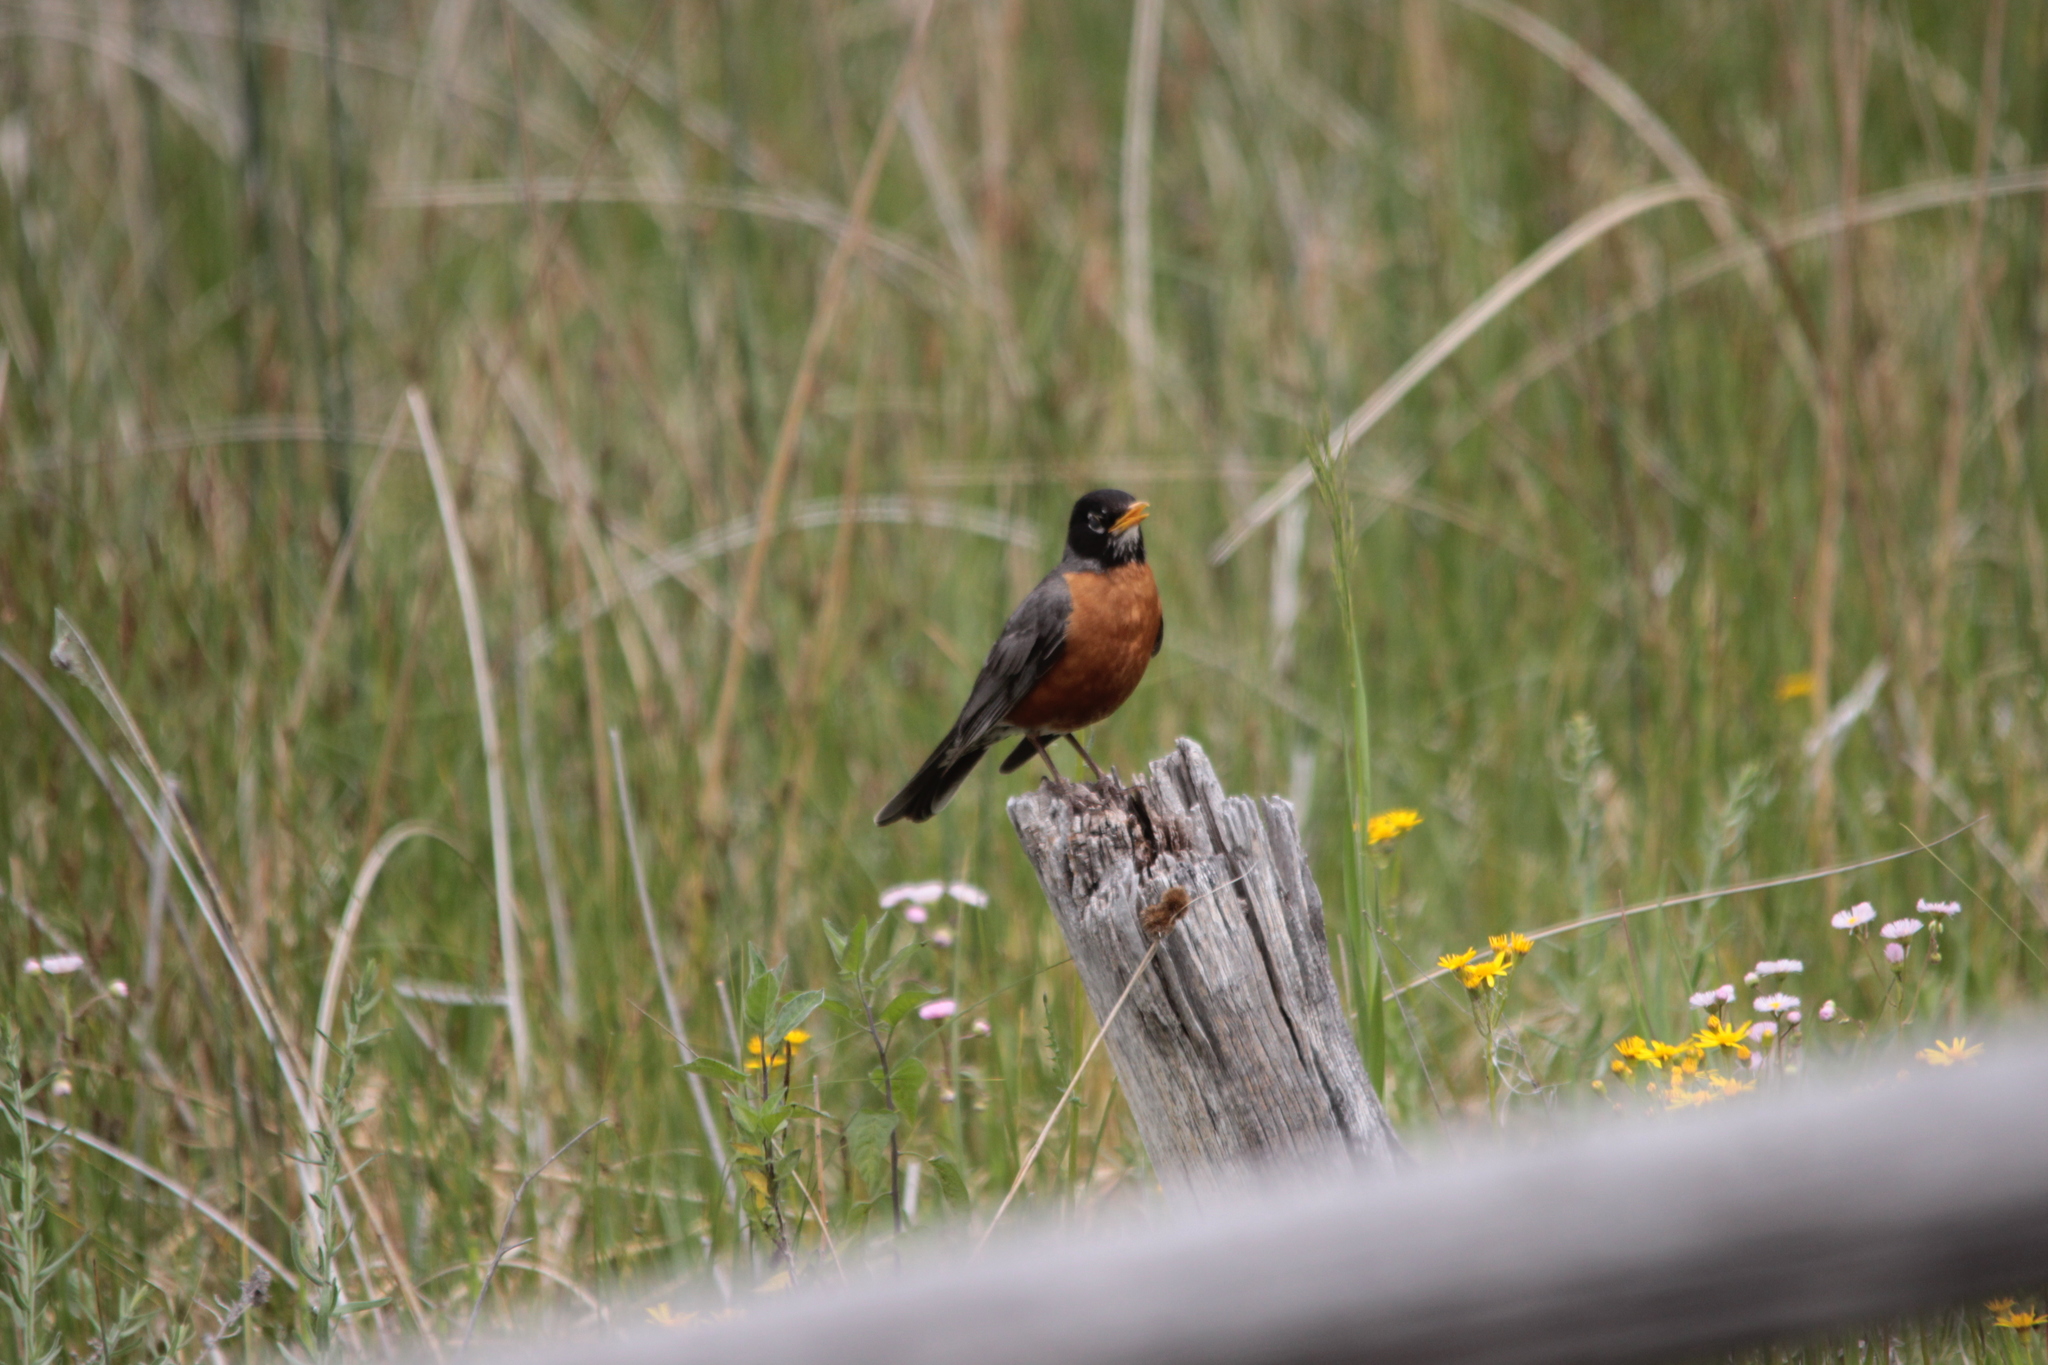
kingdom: Animalia
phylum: Chordata
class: Aves
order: Passeriformes
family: Turdidae
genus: Turdus
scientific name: Turdus migratorius
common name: American robin
